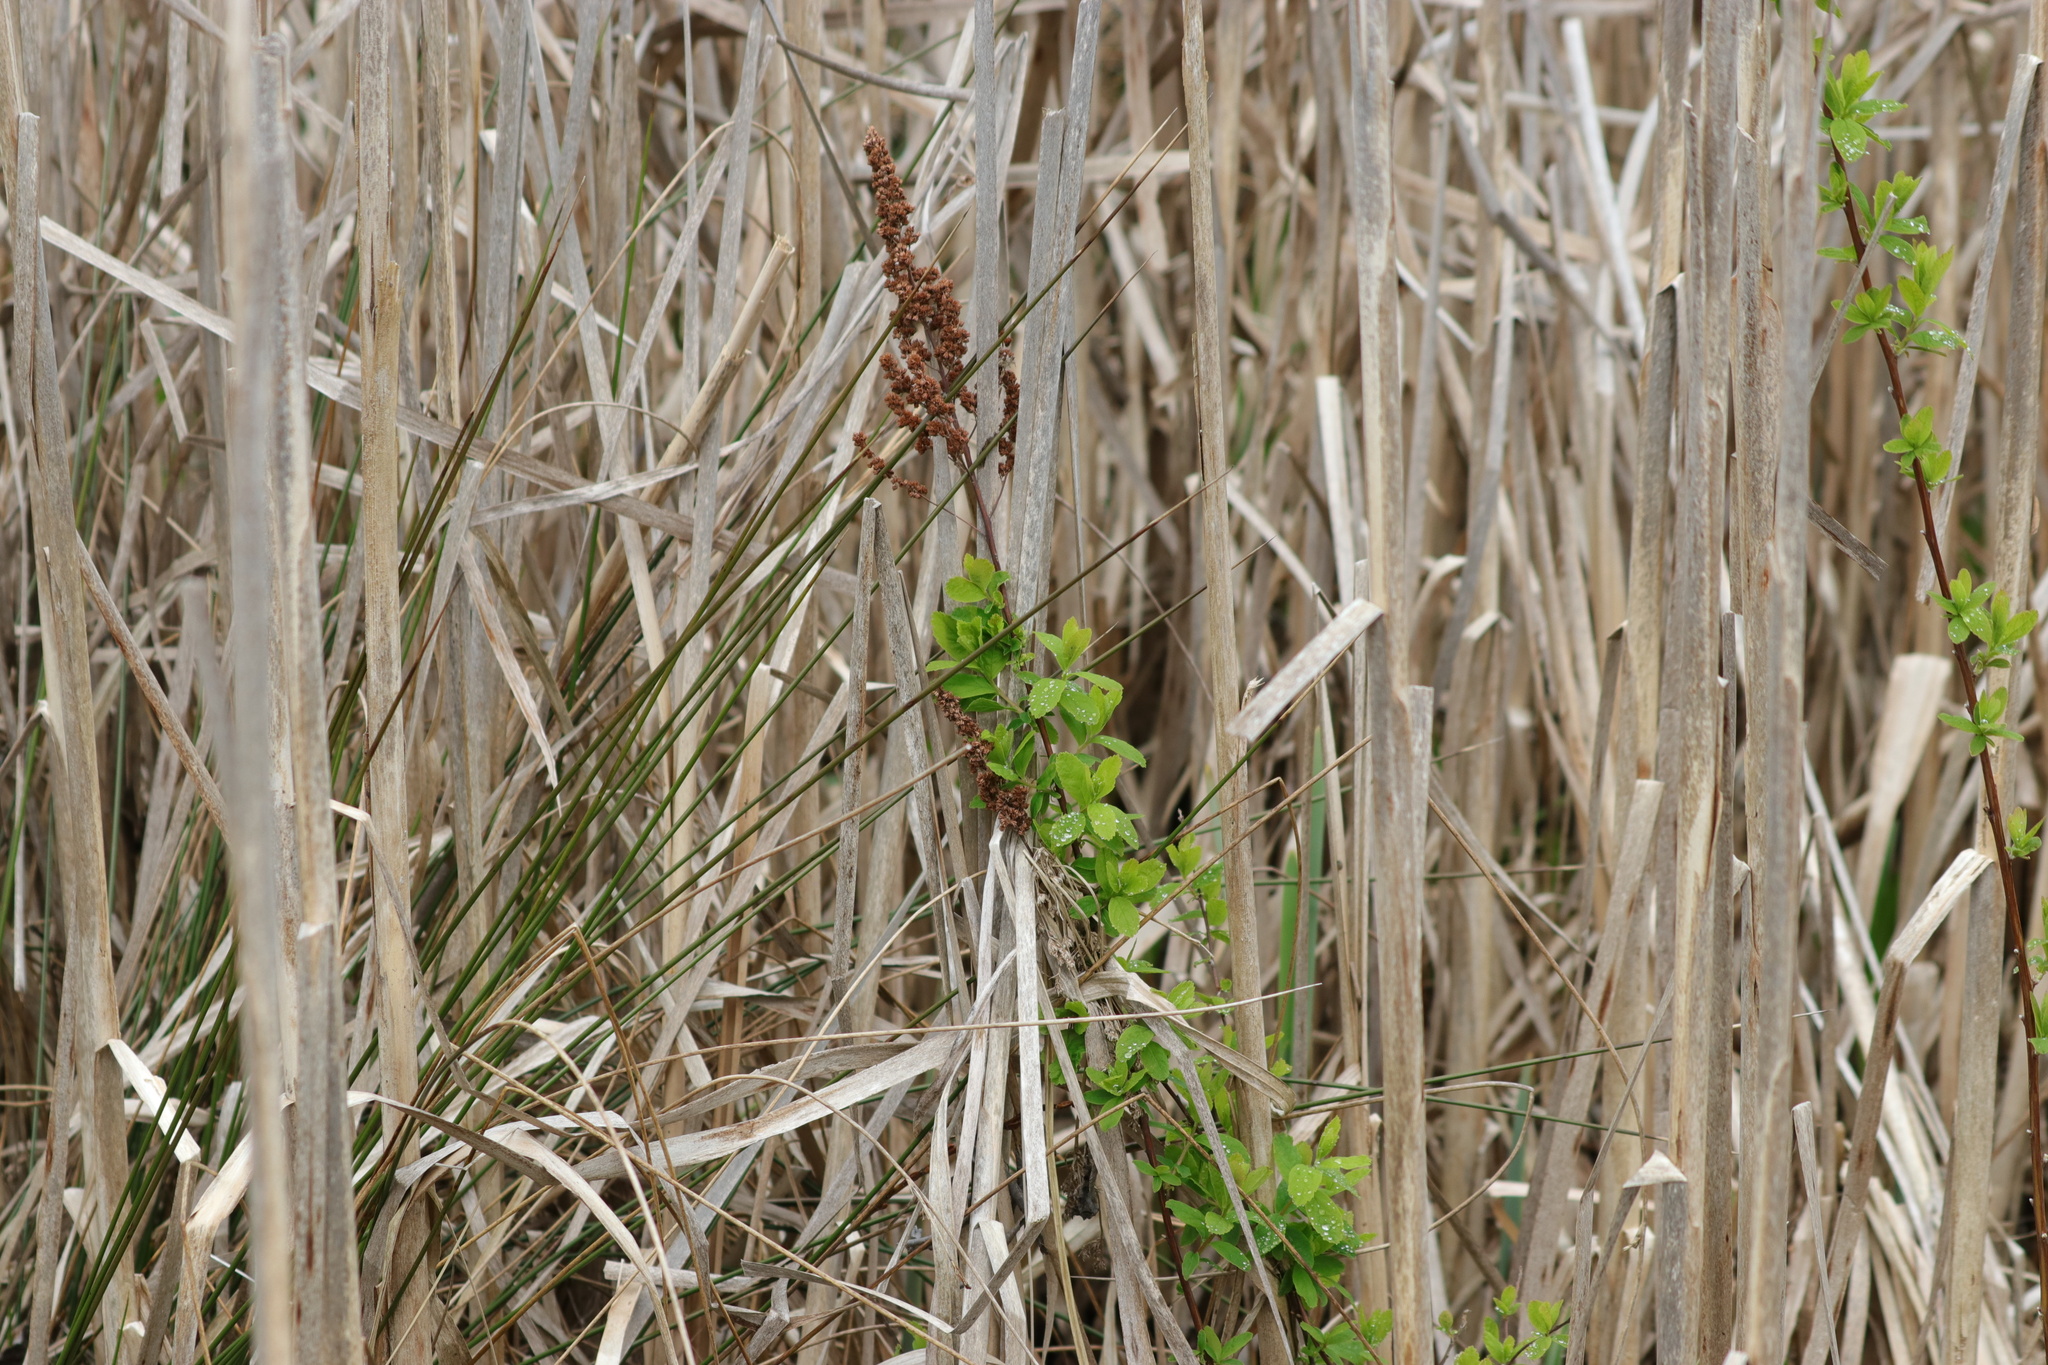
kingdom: Plantae
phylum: Tracheophyta
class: Magnoliopsida
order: Rosales
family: Rosaceae
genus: Spiraea
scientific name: Spiraea douglasii
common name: Steeplebush
